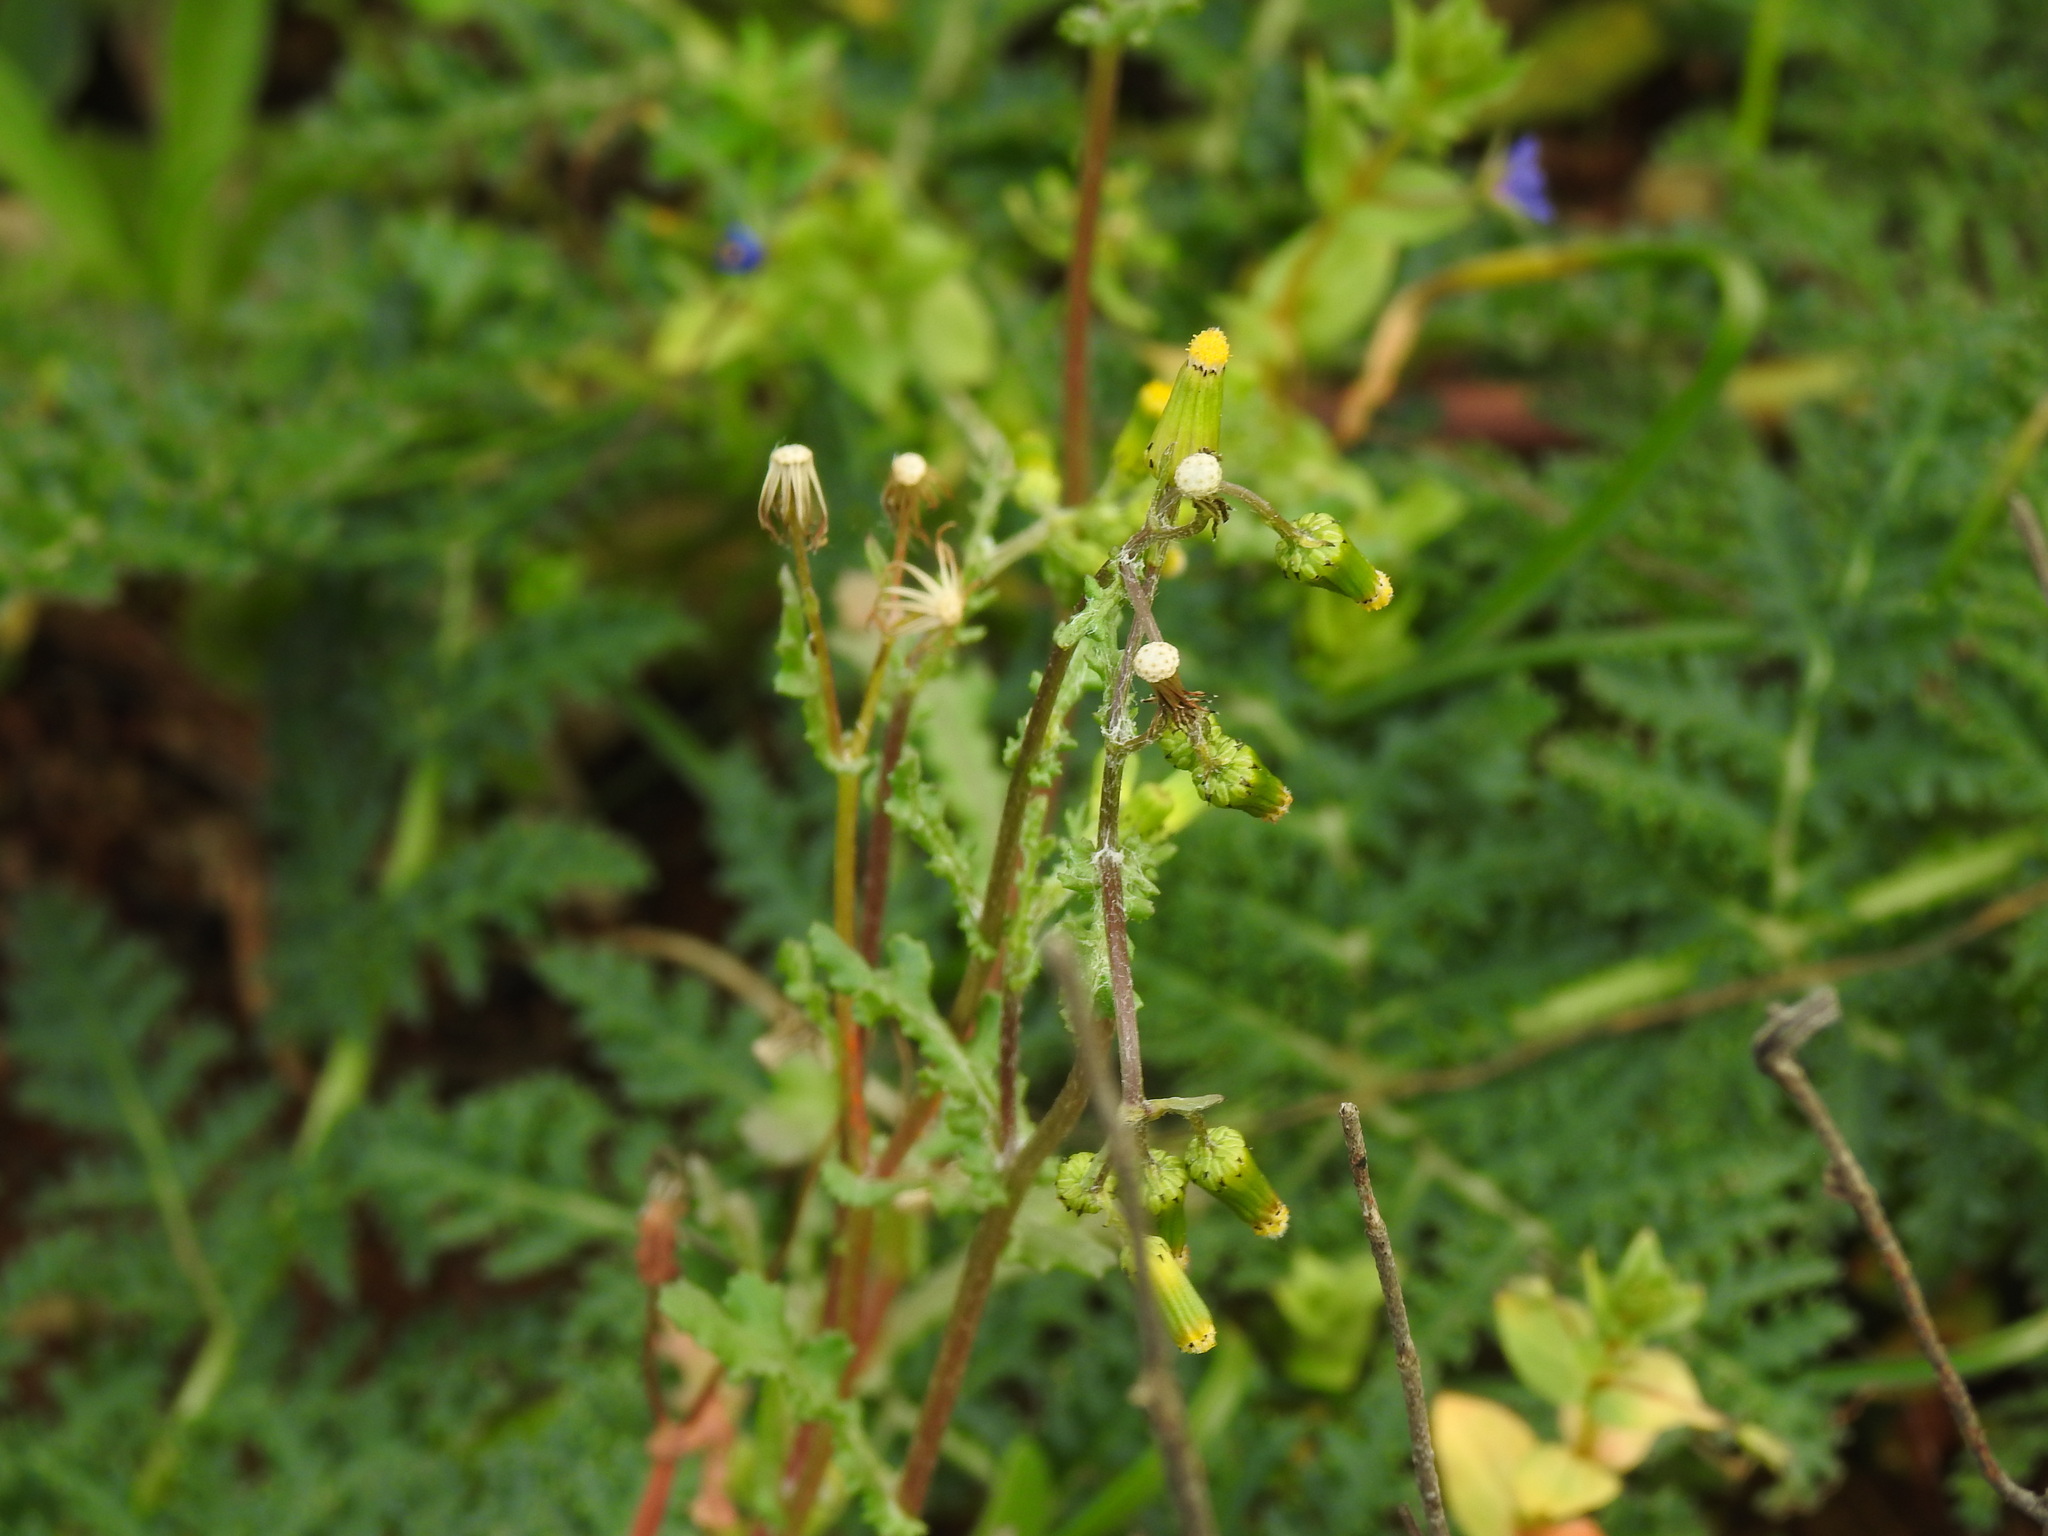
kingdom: Plantae
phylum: Tracheophyta
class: Magnoliopsida
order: Asterales
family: Asteraceae
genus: Senecio
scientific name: Senecio vulgaris
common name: Old-man-in-the-spring
